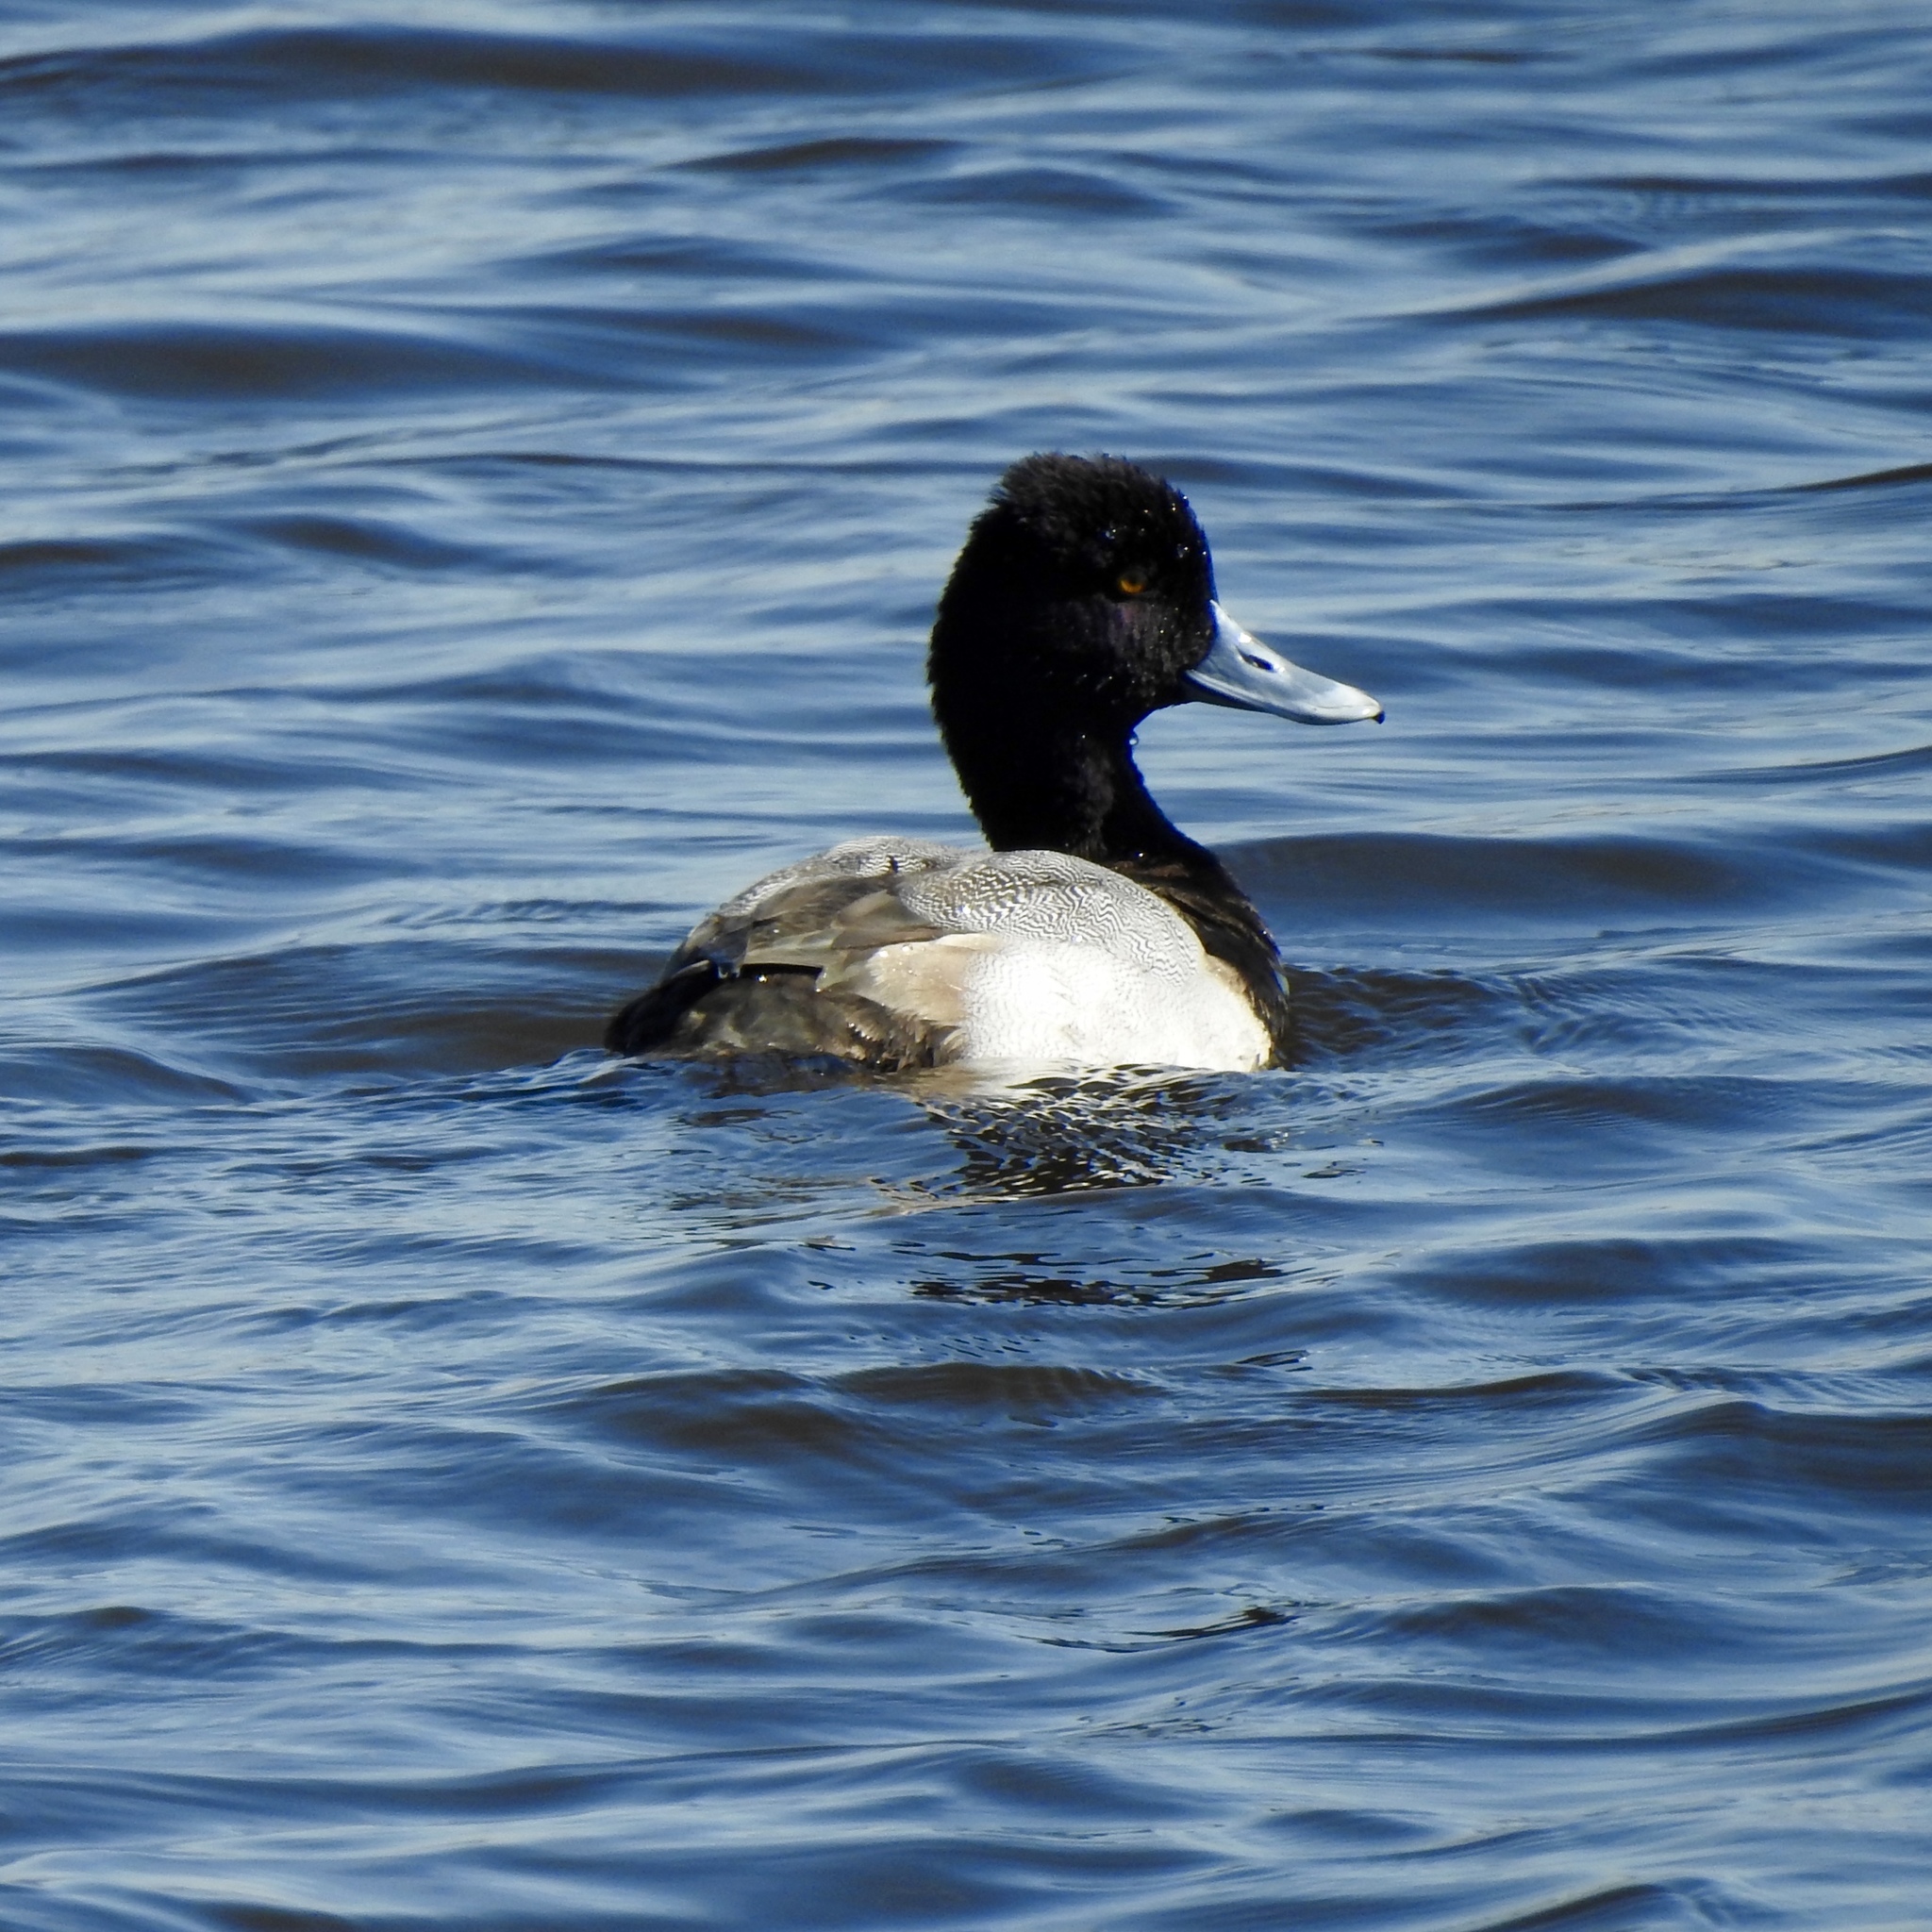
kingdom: Animalia
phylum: Chordata
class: Aves
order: Anseriformes
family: Anatidae
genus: Aythya
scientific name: Aythya affinis
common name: Lesser scaup
